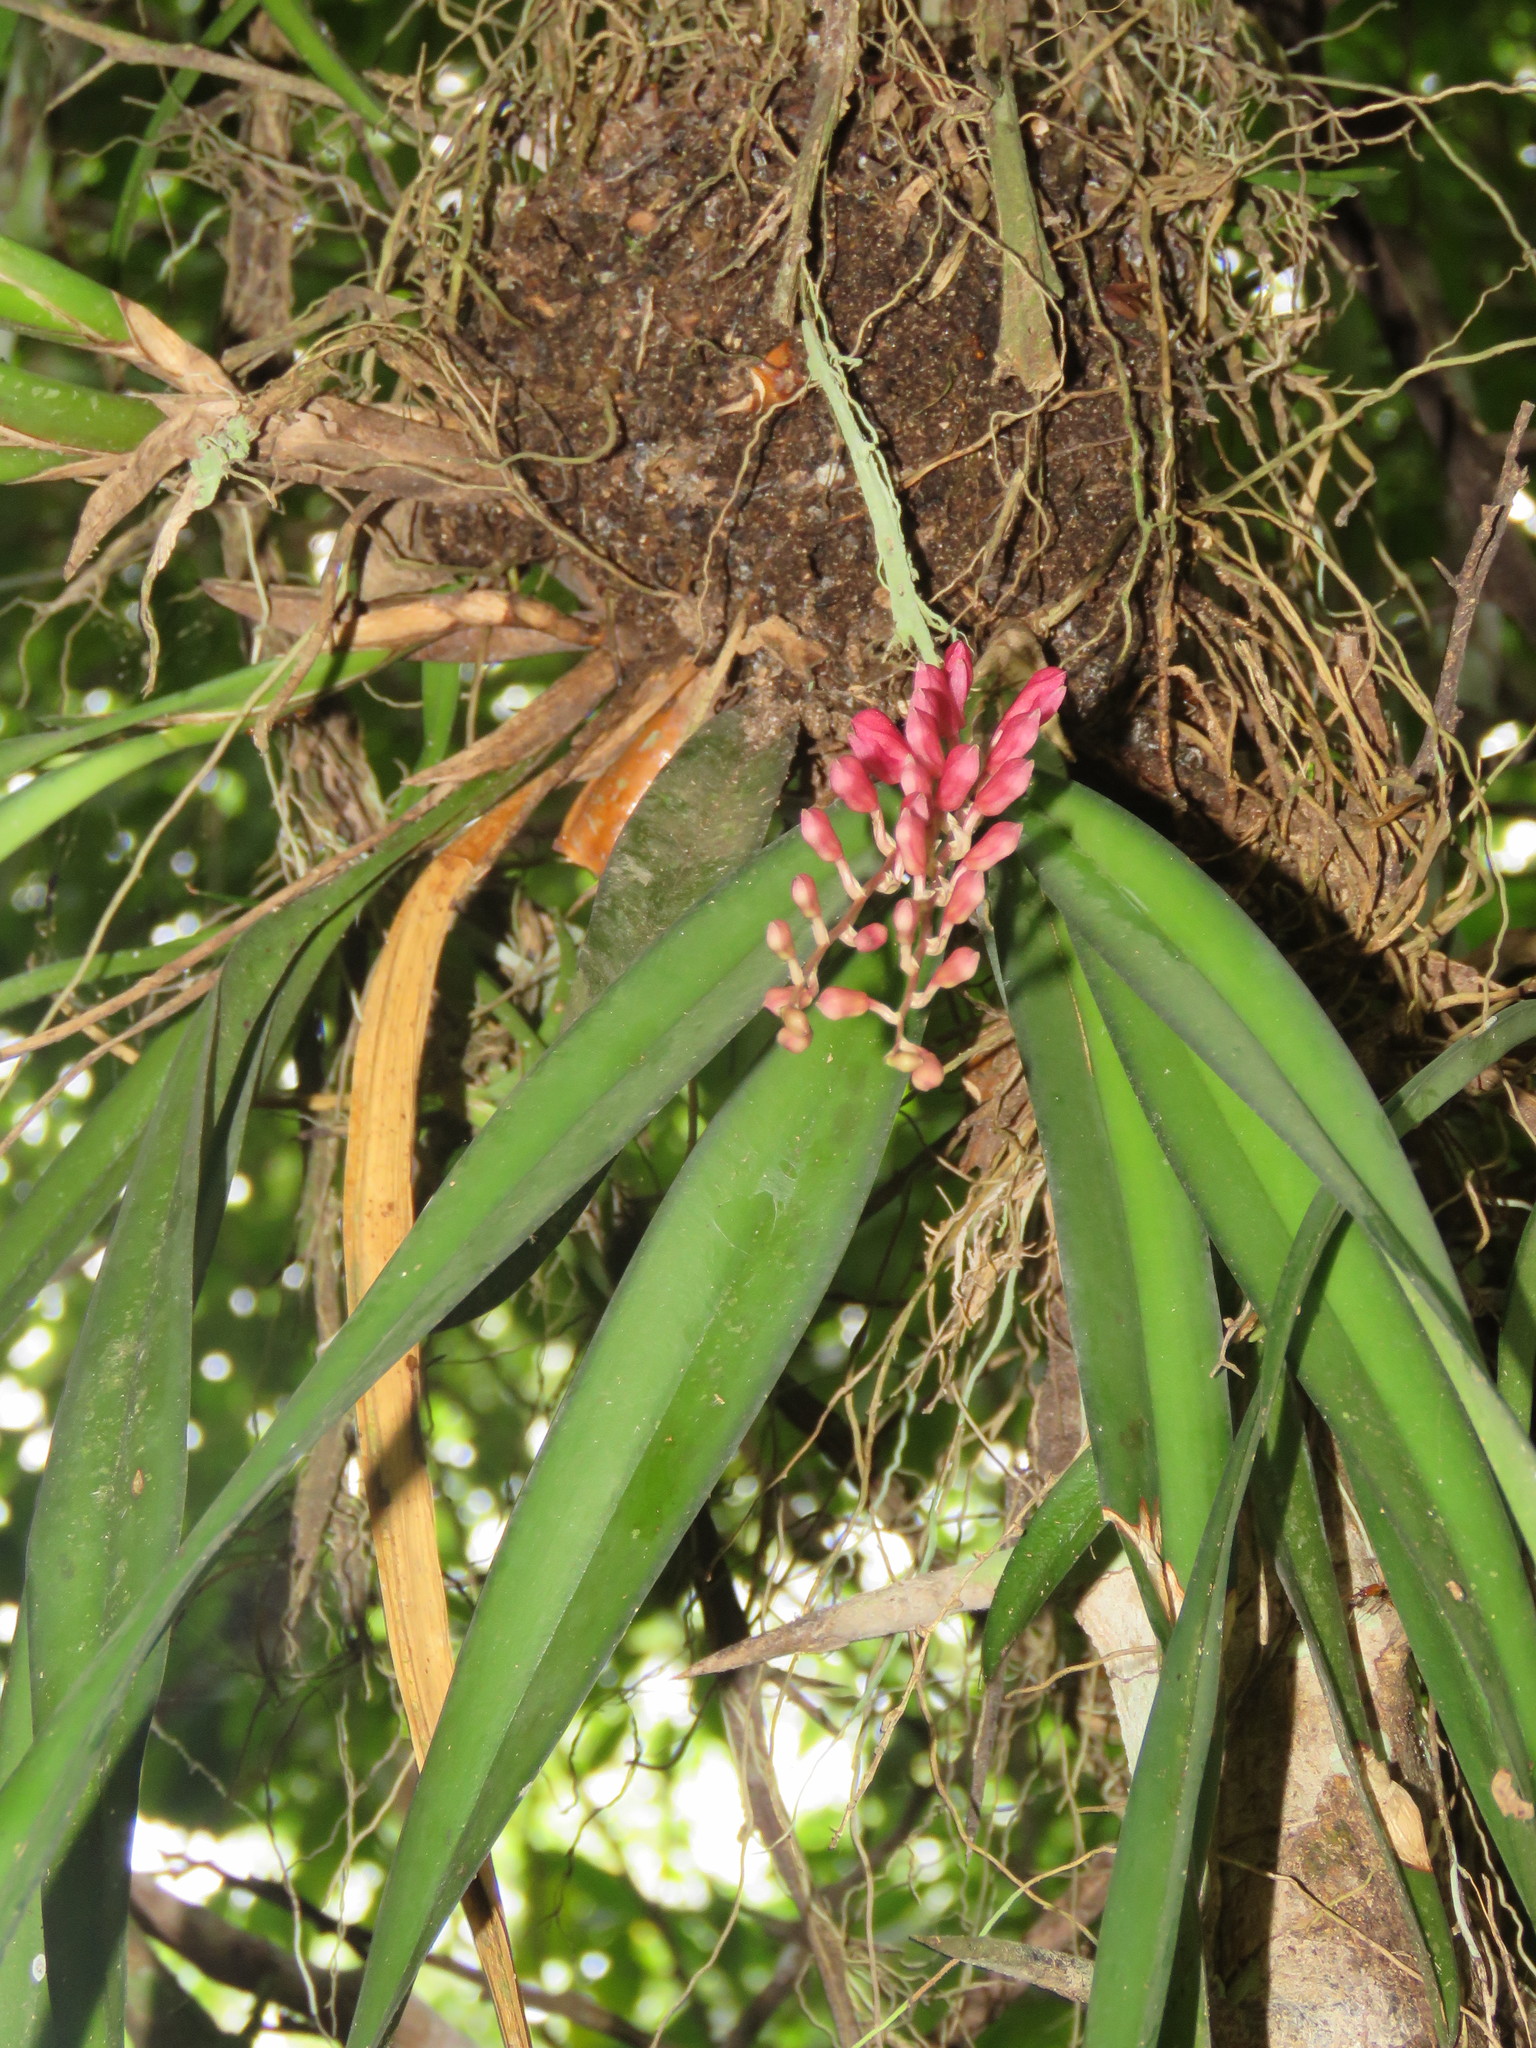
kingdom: Plantae
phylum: Tracheophyta
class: Liliopsida
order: Asparagales
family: Orchidaceae
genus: Rodriguezia
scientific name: Rodriguezia carnea
